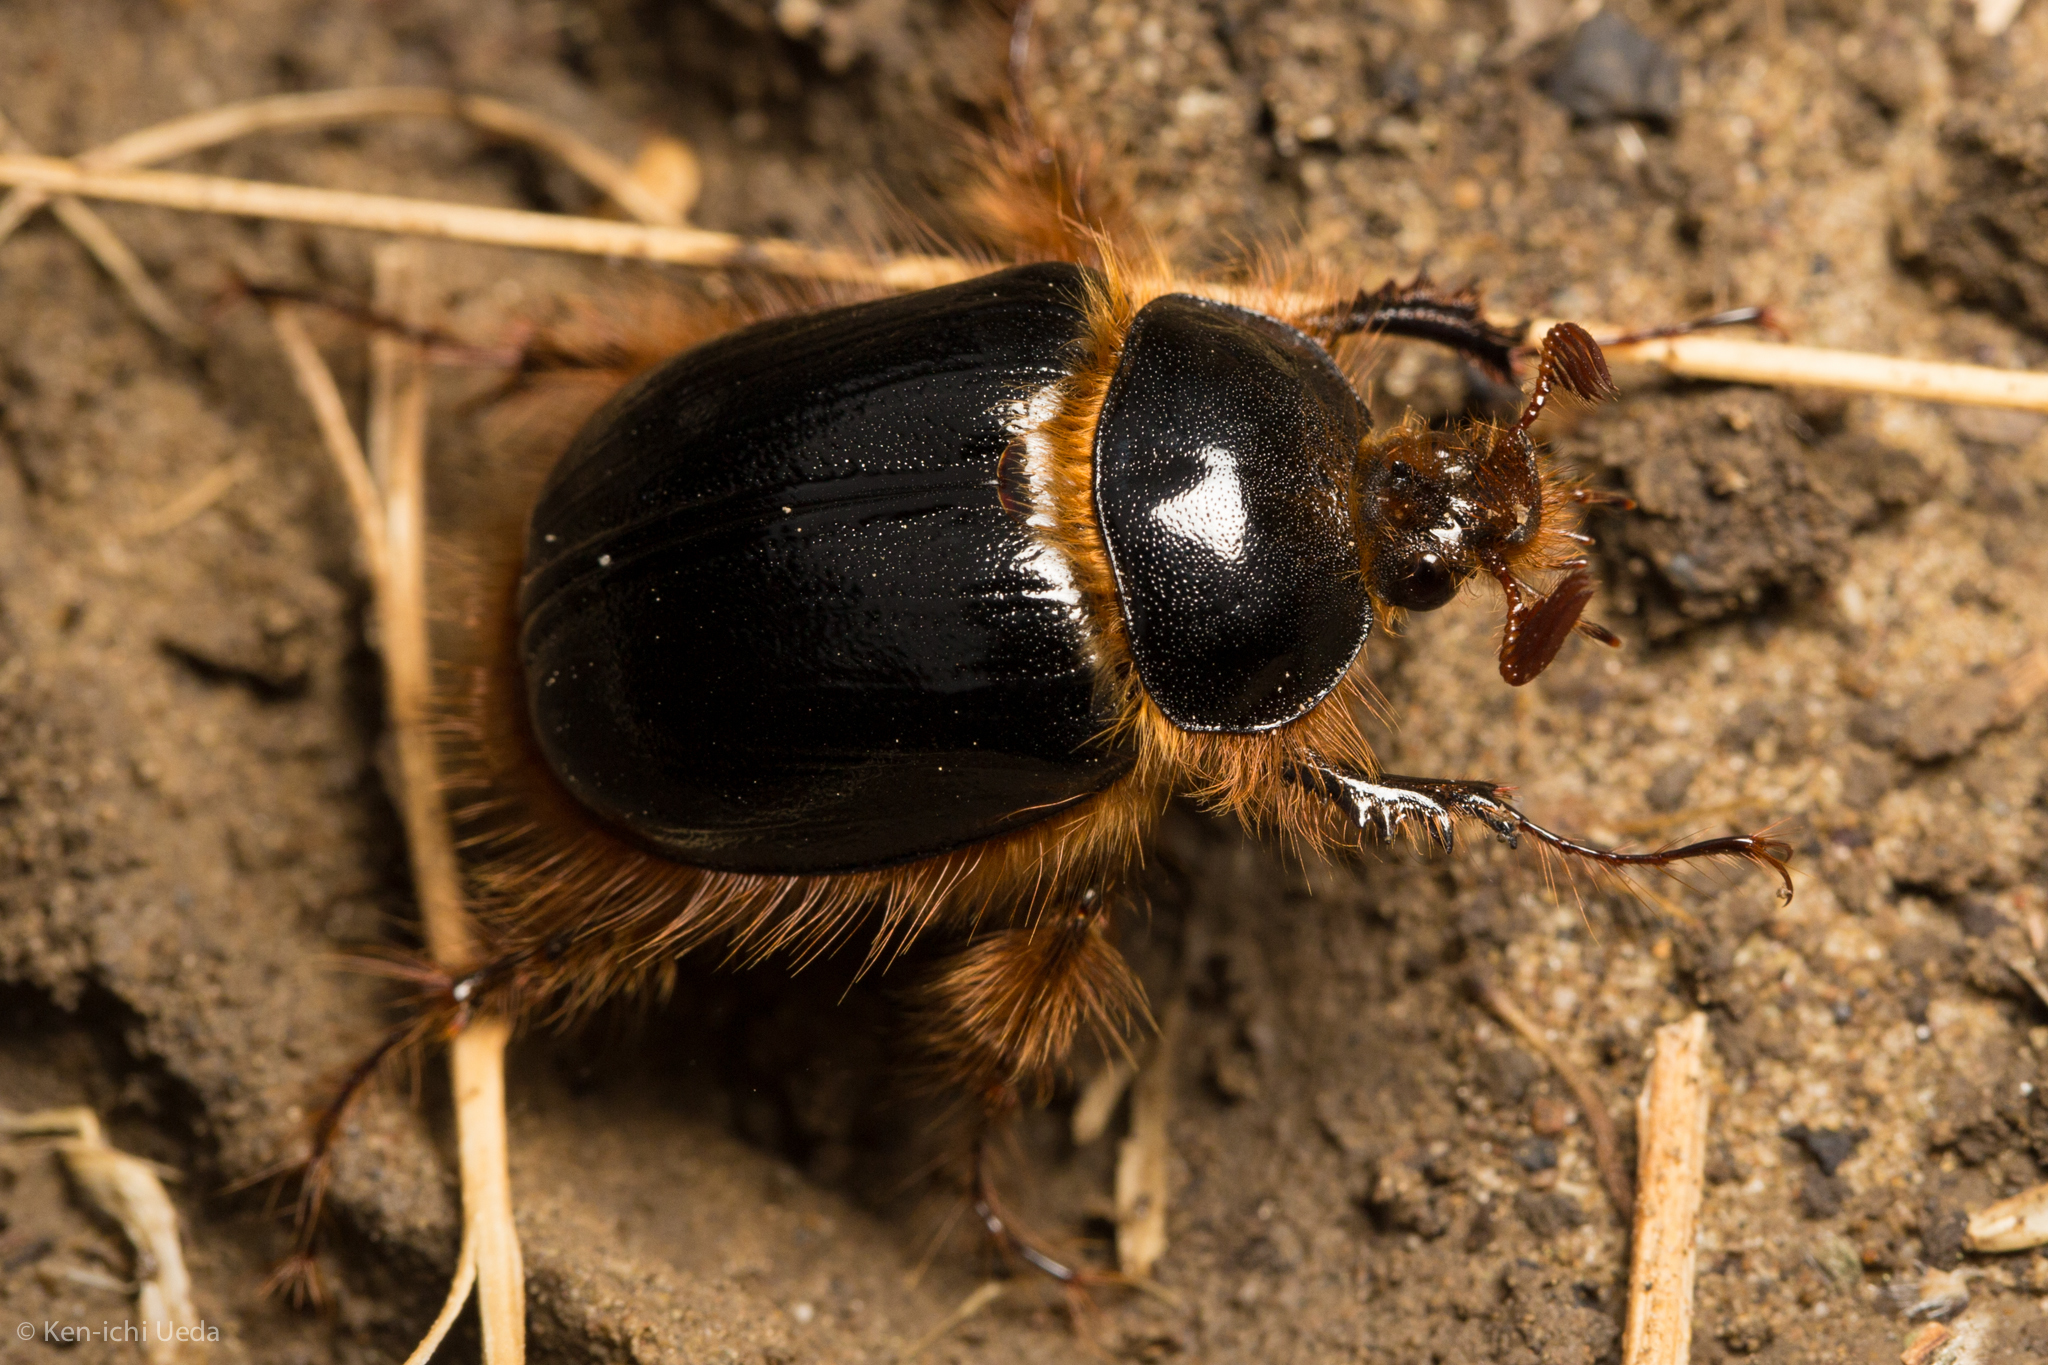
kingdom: Animalia
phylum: Arthropoda
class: Insecta
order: Coleoptera
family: Pleocomidae
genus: Pleocoma
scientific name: Pleocoma behrensi
